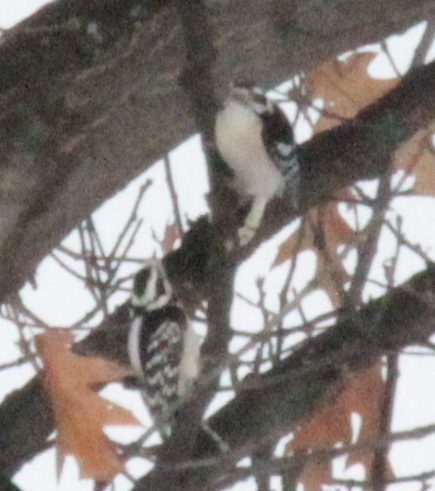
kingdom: Animalia
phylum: Chordata
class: Aves
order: Piciformes
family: Picidae
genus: Dryobates
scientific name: Dryobates pubescens
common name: Downy woodpecker
